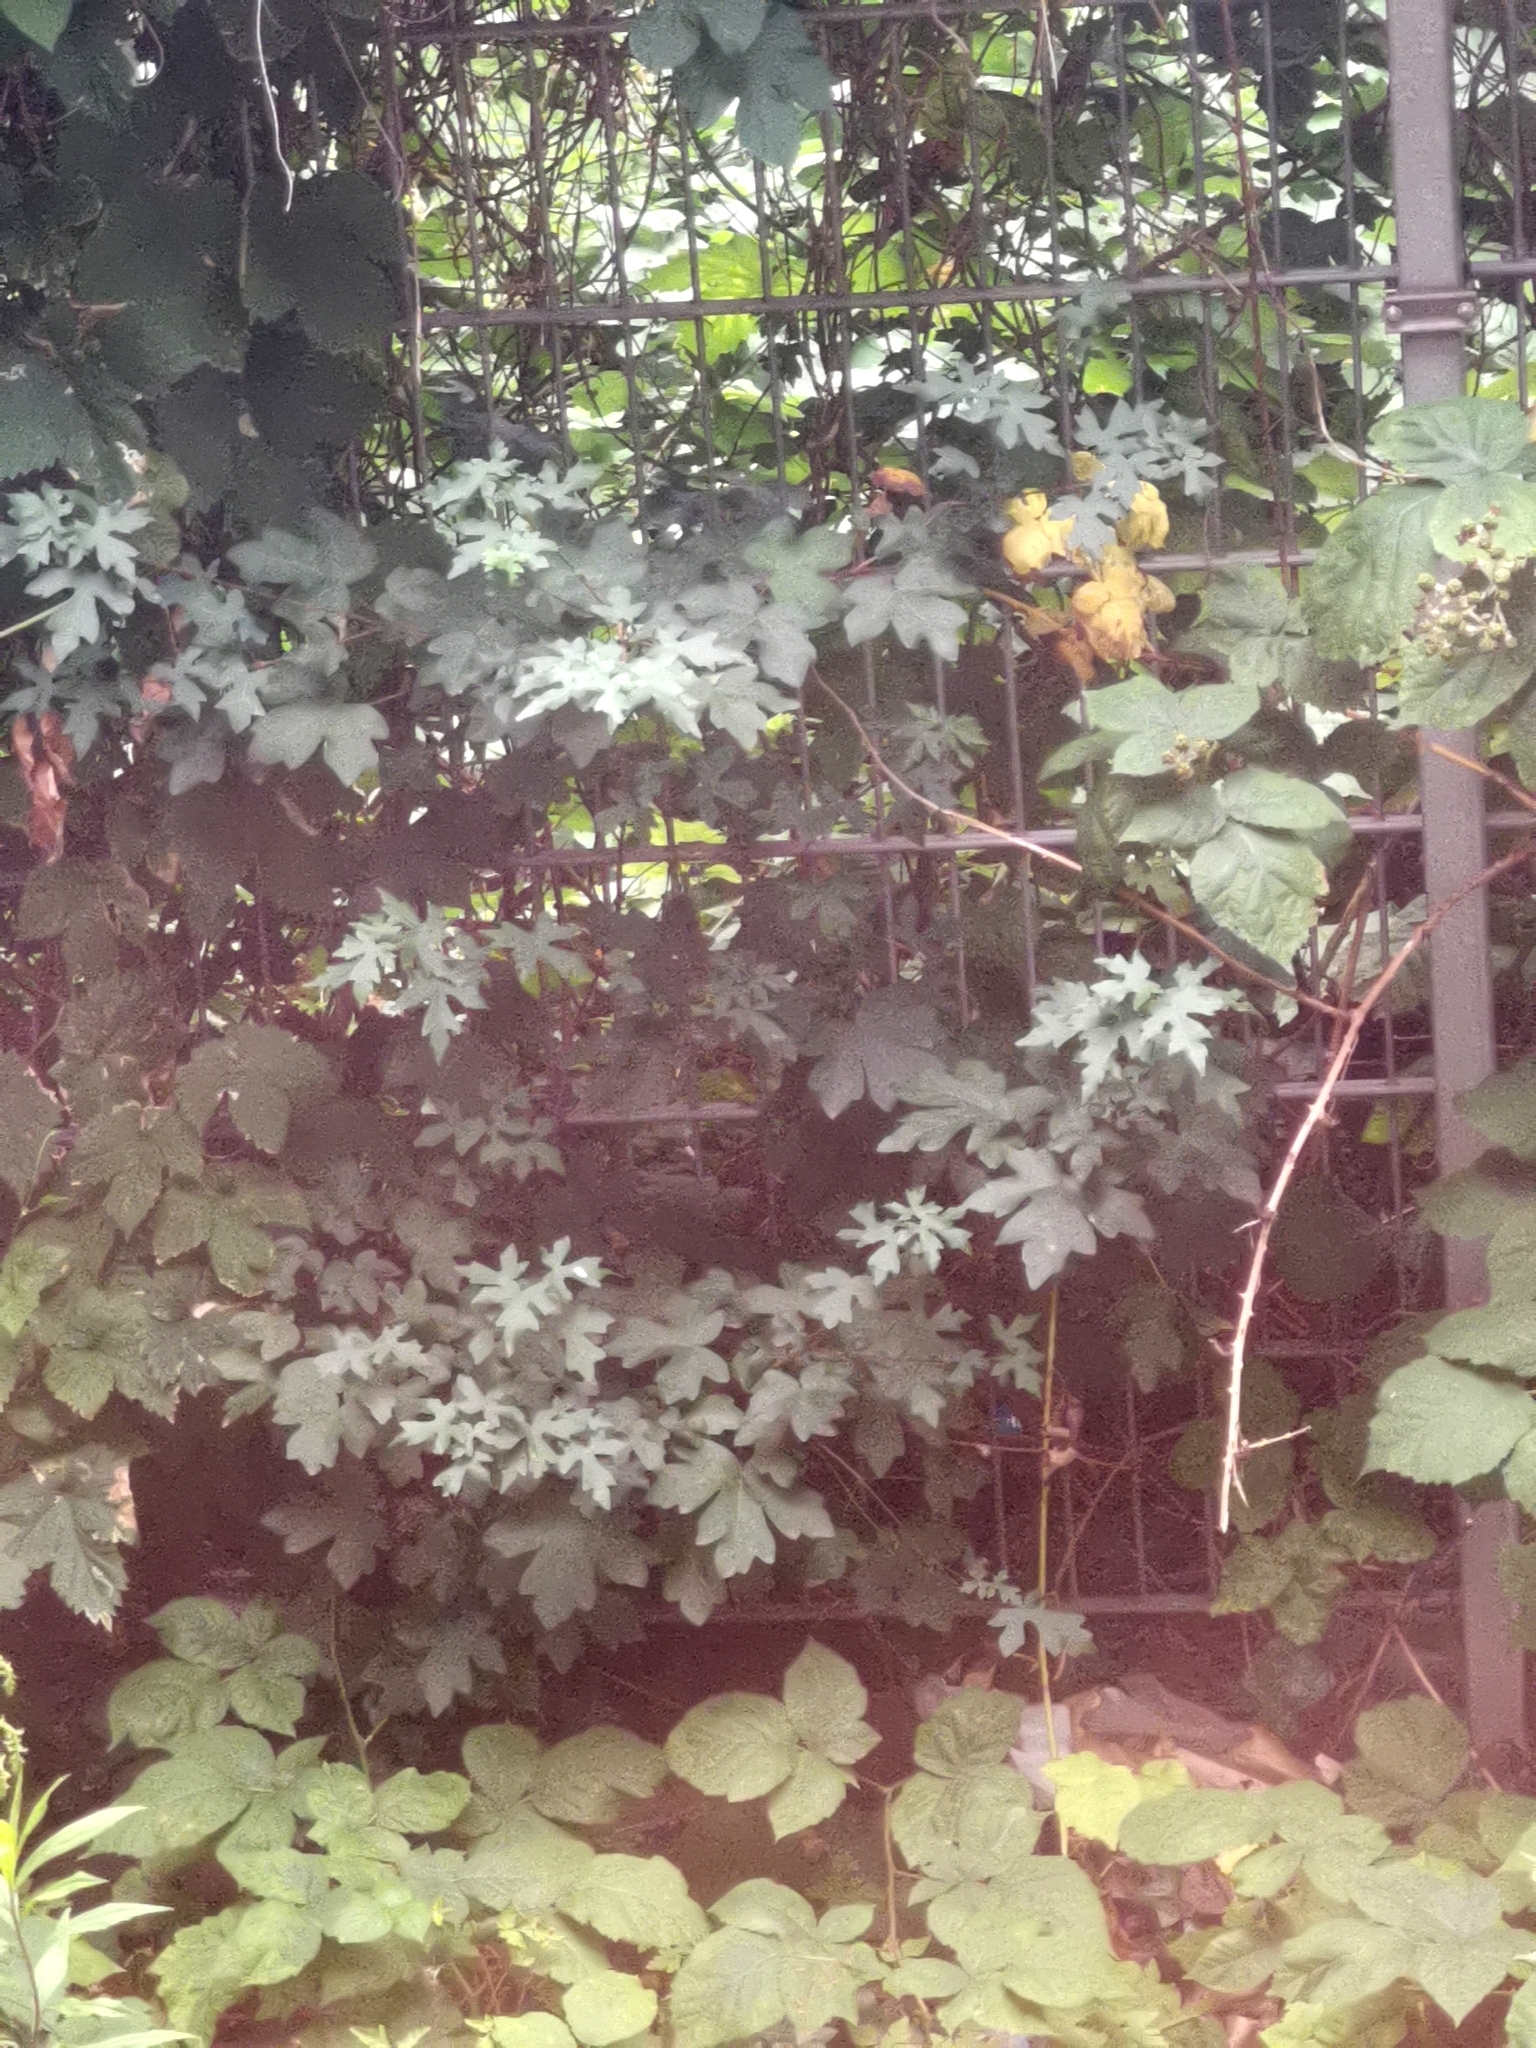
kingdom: Plantae
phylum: Tracheophyta
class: Magnoliopsida
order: Sapindales
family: Sapindaceae
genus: Acer
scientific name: Acer campestre
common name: Field maple
